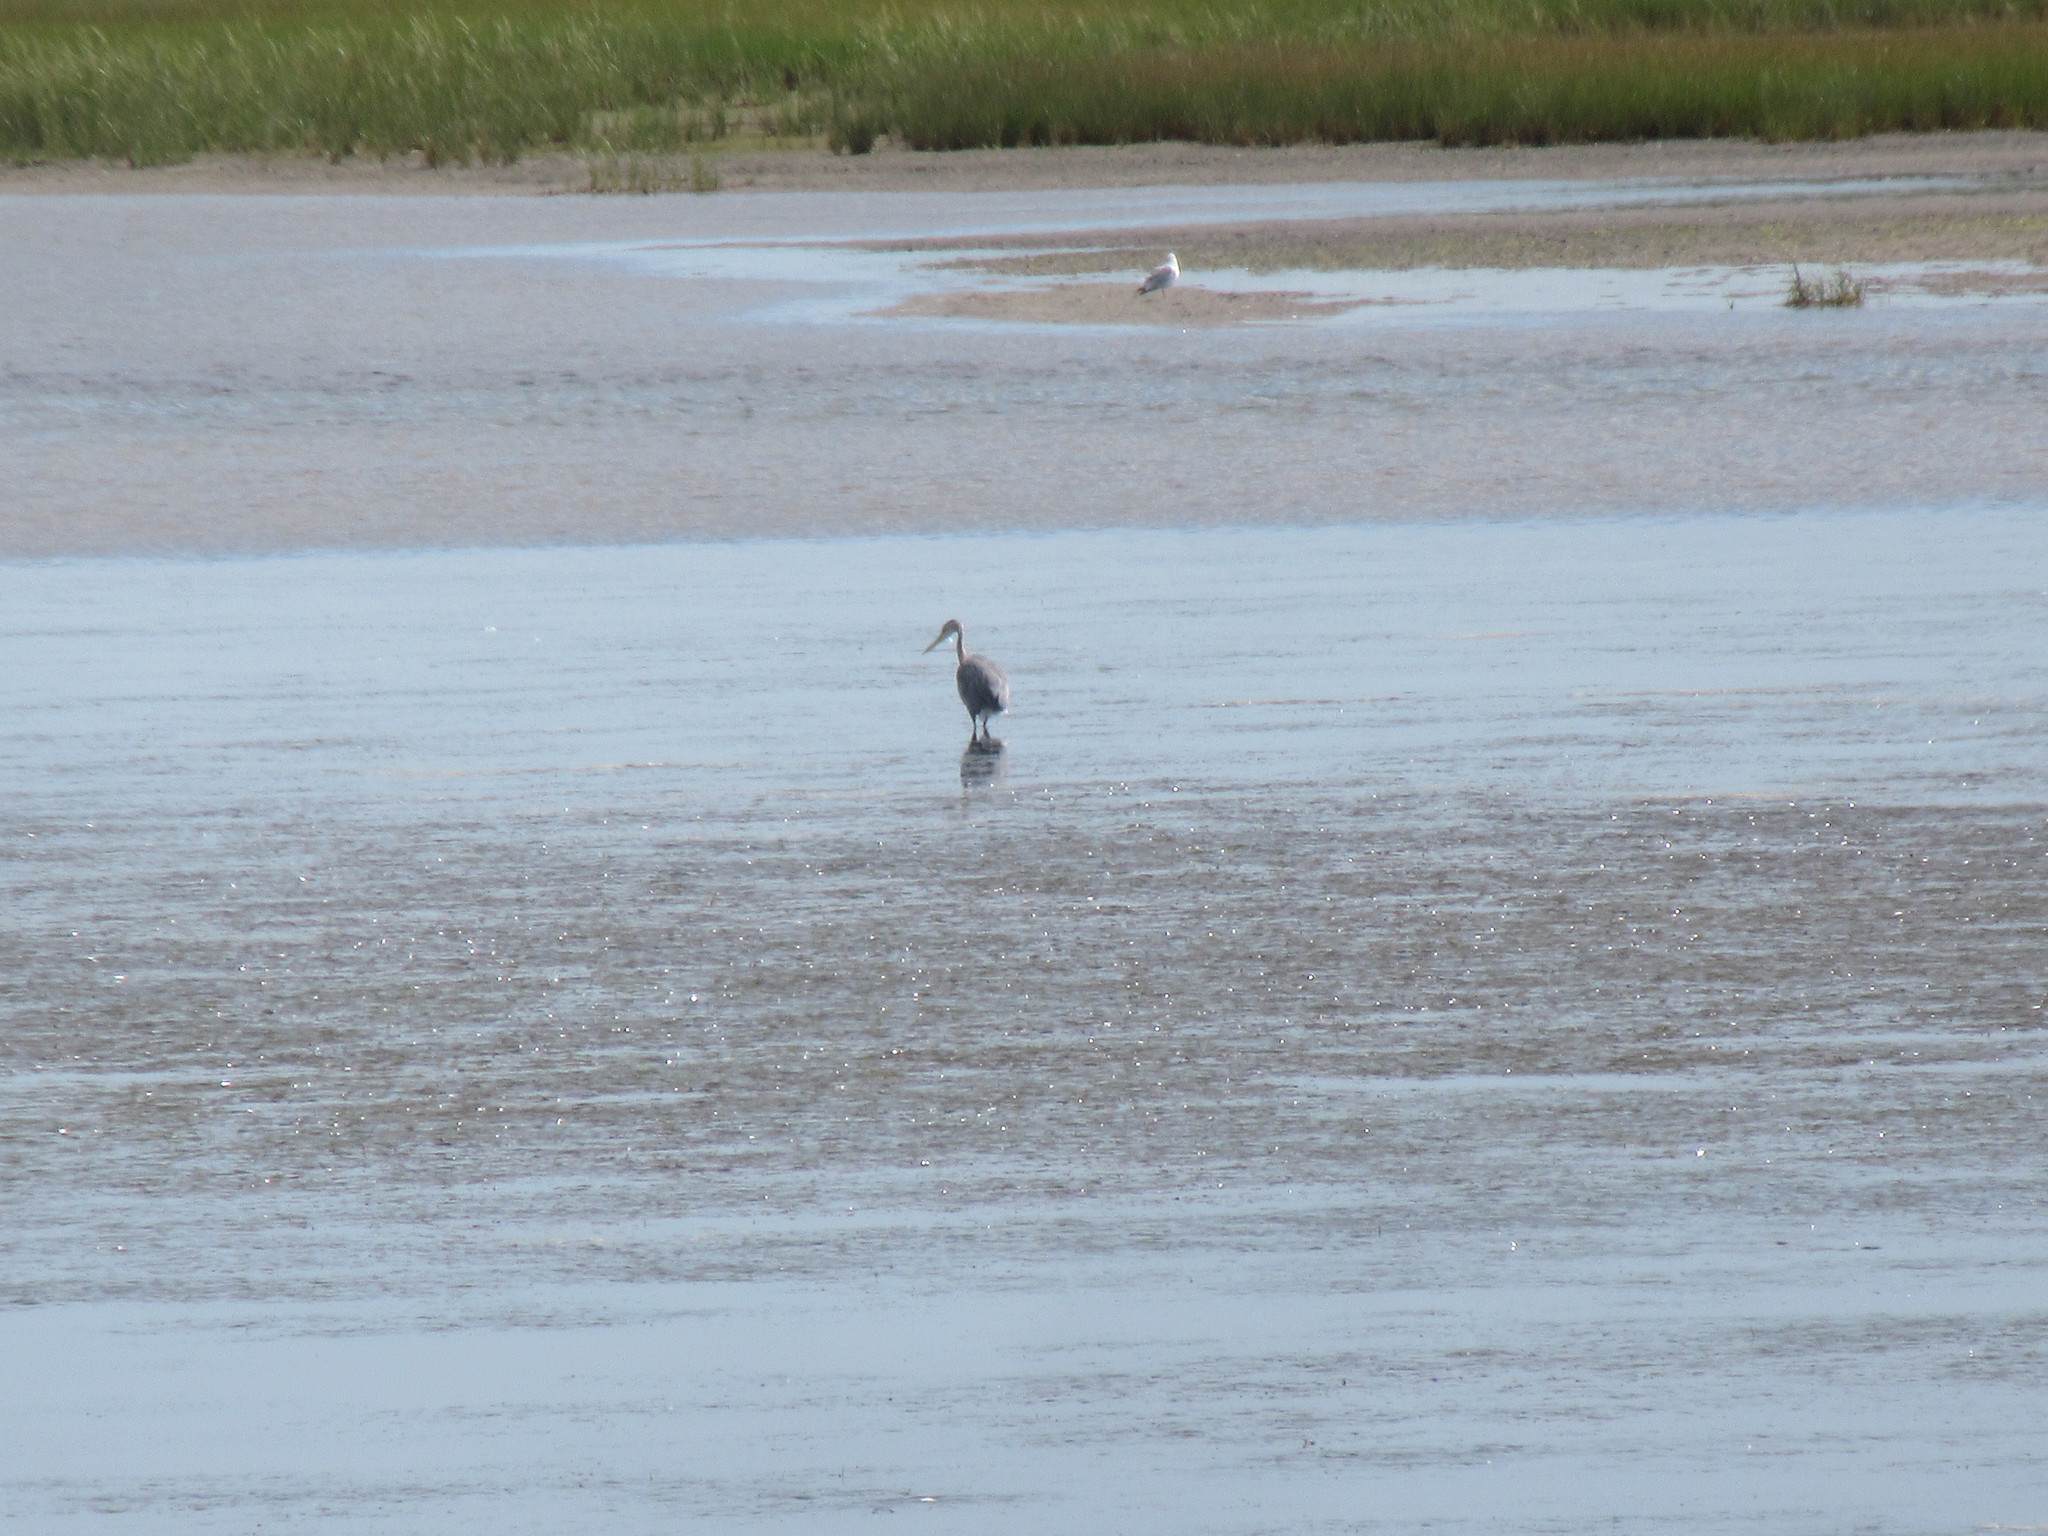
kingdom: Animalia
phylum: Chordata
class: Aves
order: Pelecaniformes
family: Ardeidae
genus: Ardea
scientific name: Ardea herodias
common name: Great blue heron
